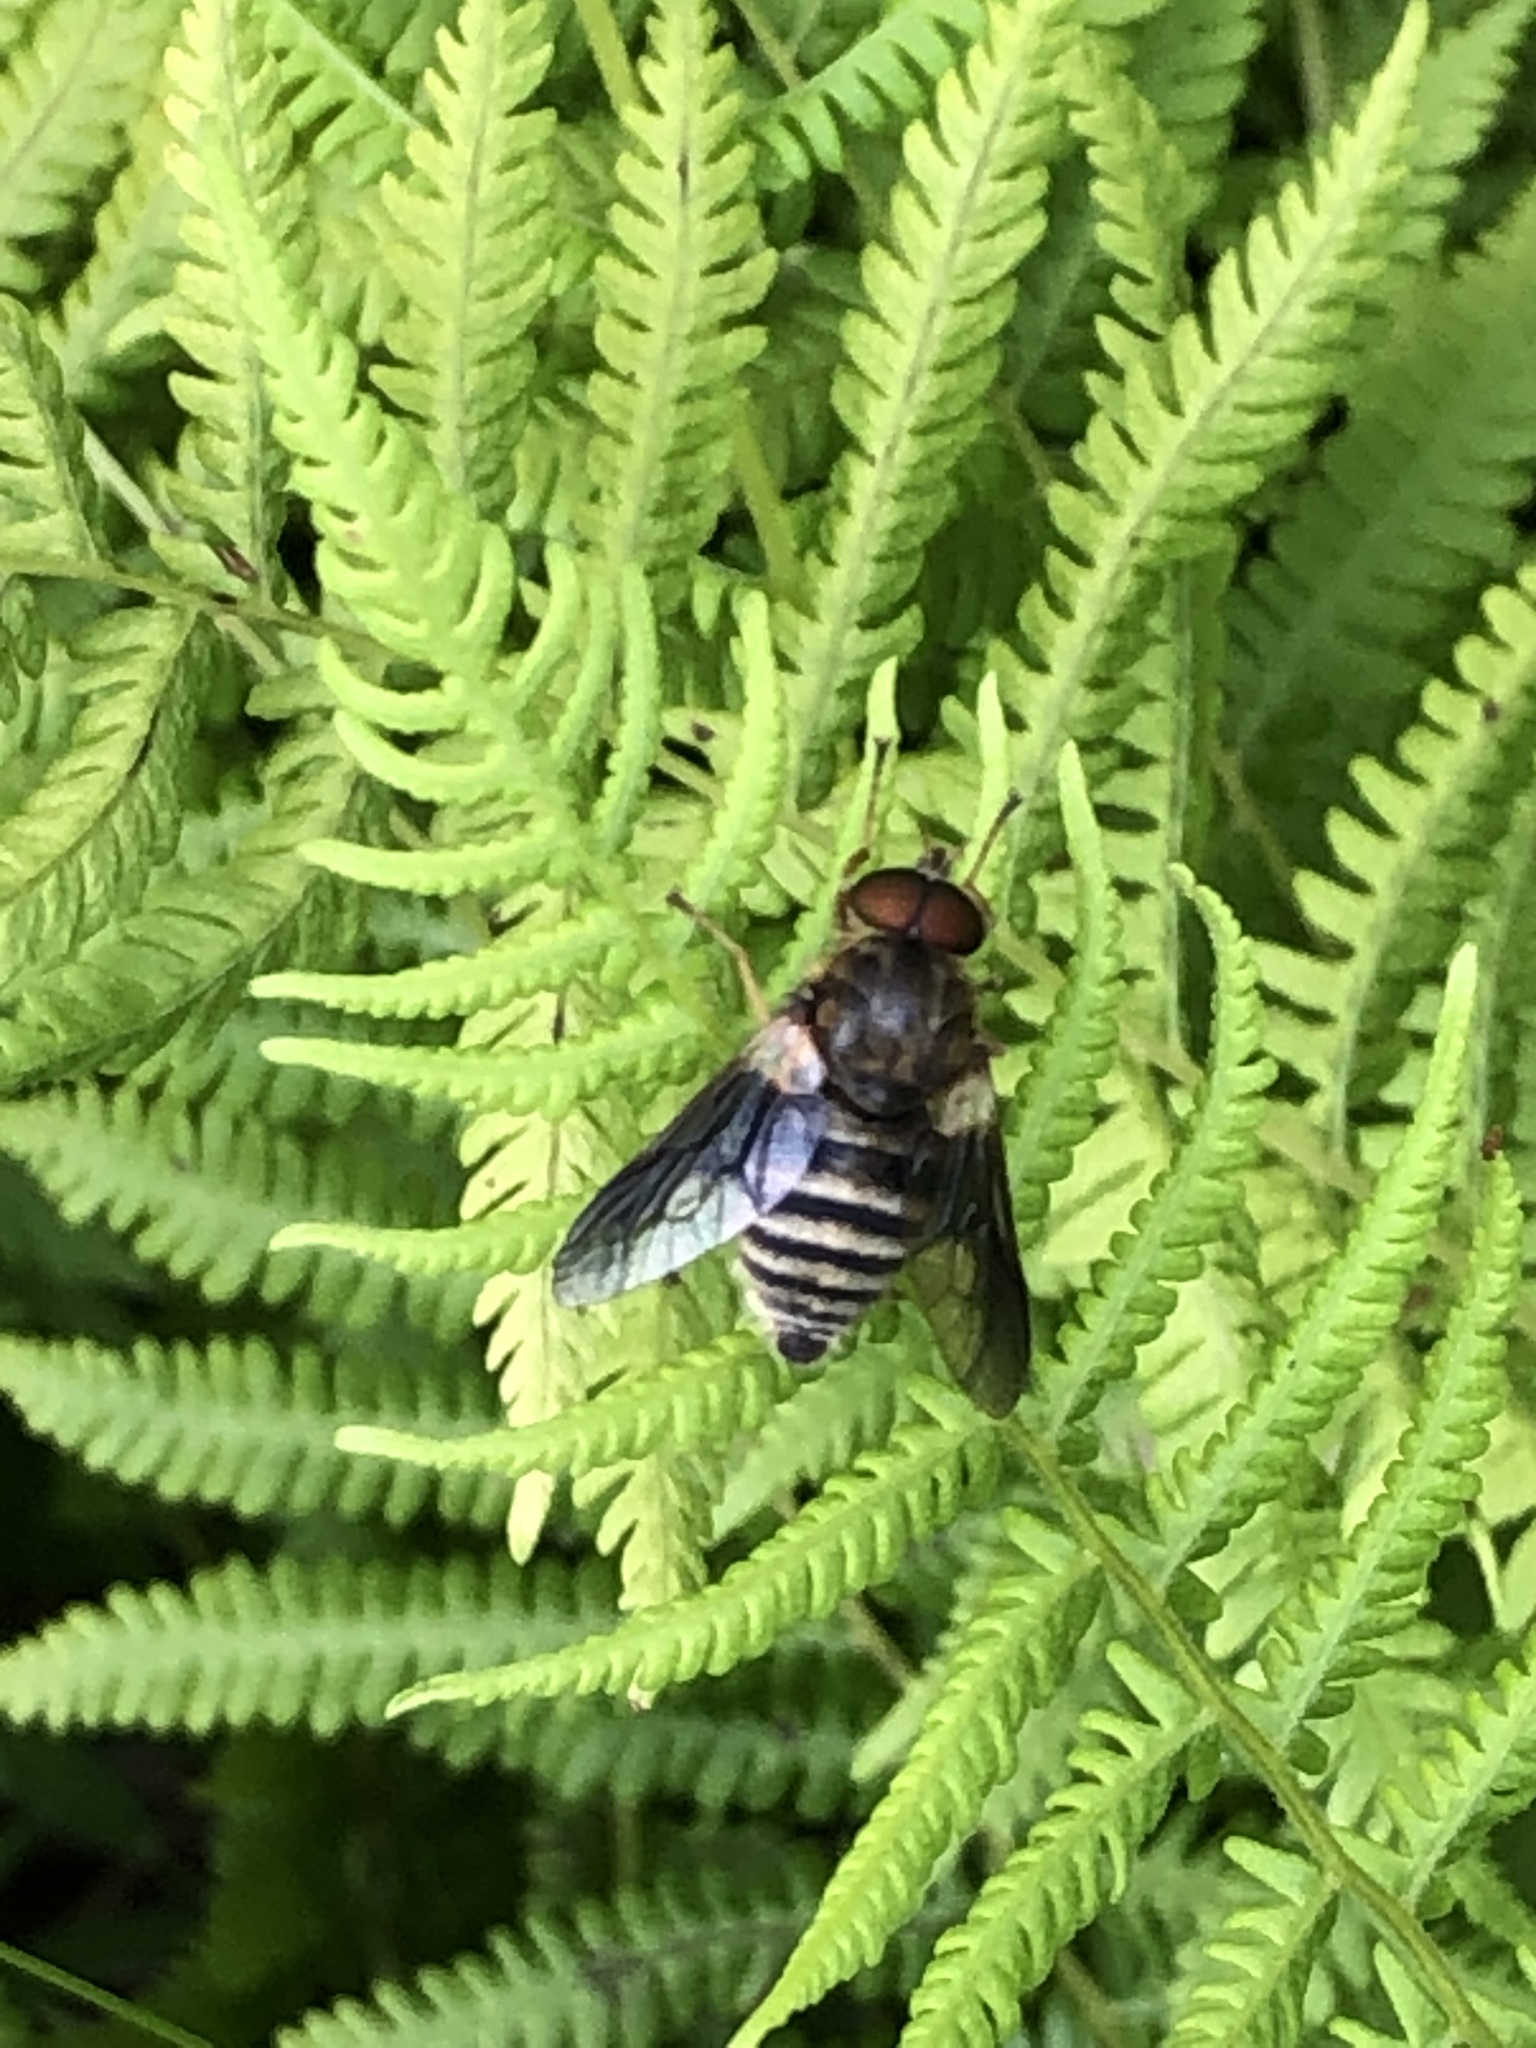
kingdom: Animalia
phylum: Arthropoda
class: Insecta
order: Diptera
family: Tabanidae
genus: Goniops
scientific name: Goniops chrysocoma
